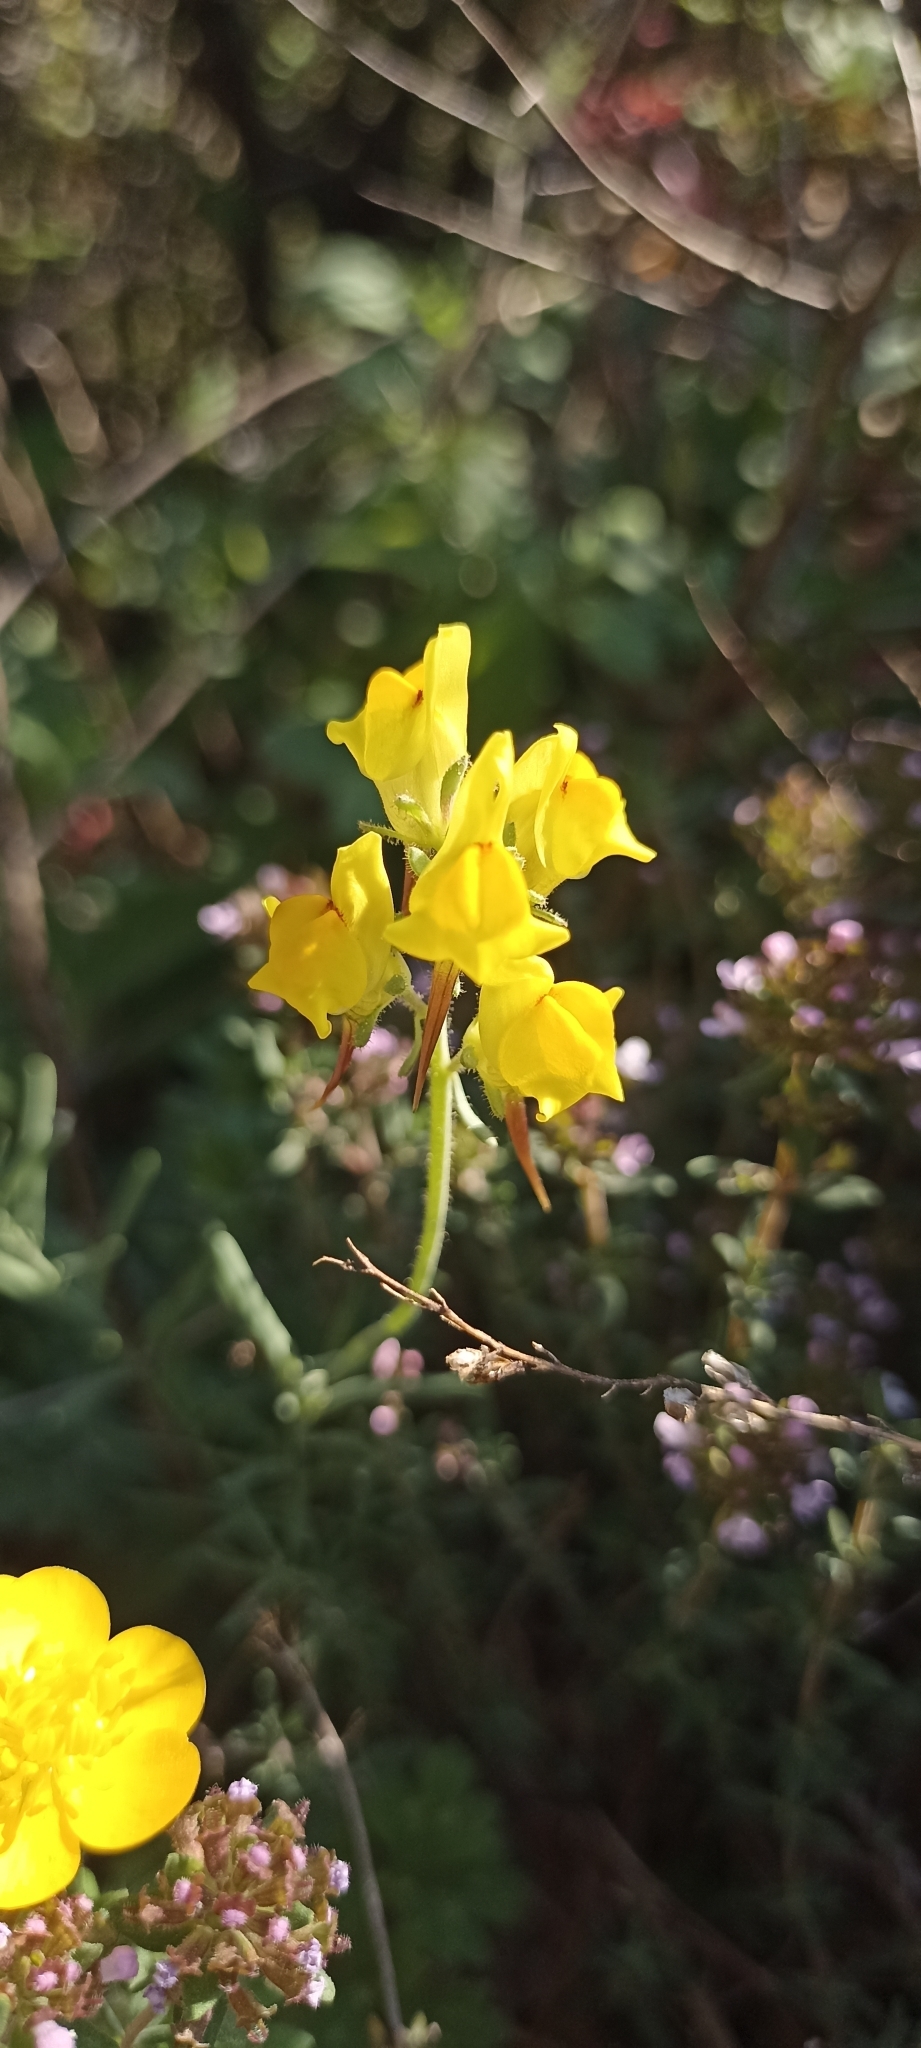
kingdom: Plantae
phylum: Tracheophyta
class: Magnoliopsida
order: Lamiales
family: Plantaginaceae
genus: Linaria
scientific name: Linaria supina
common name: Prostrate toadflax
